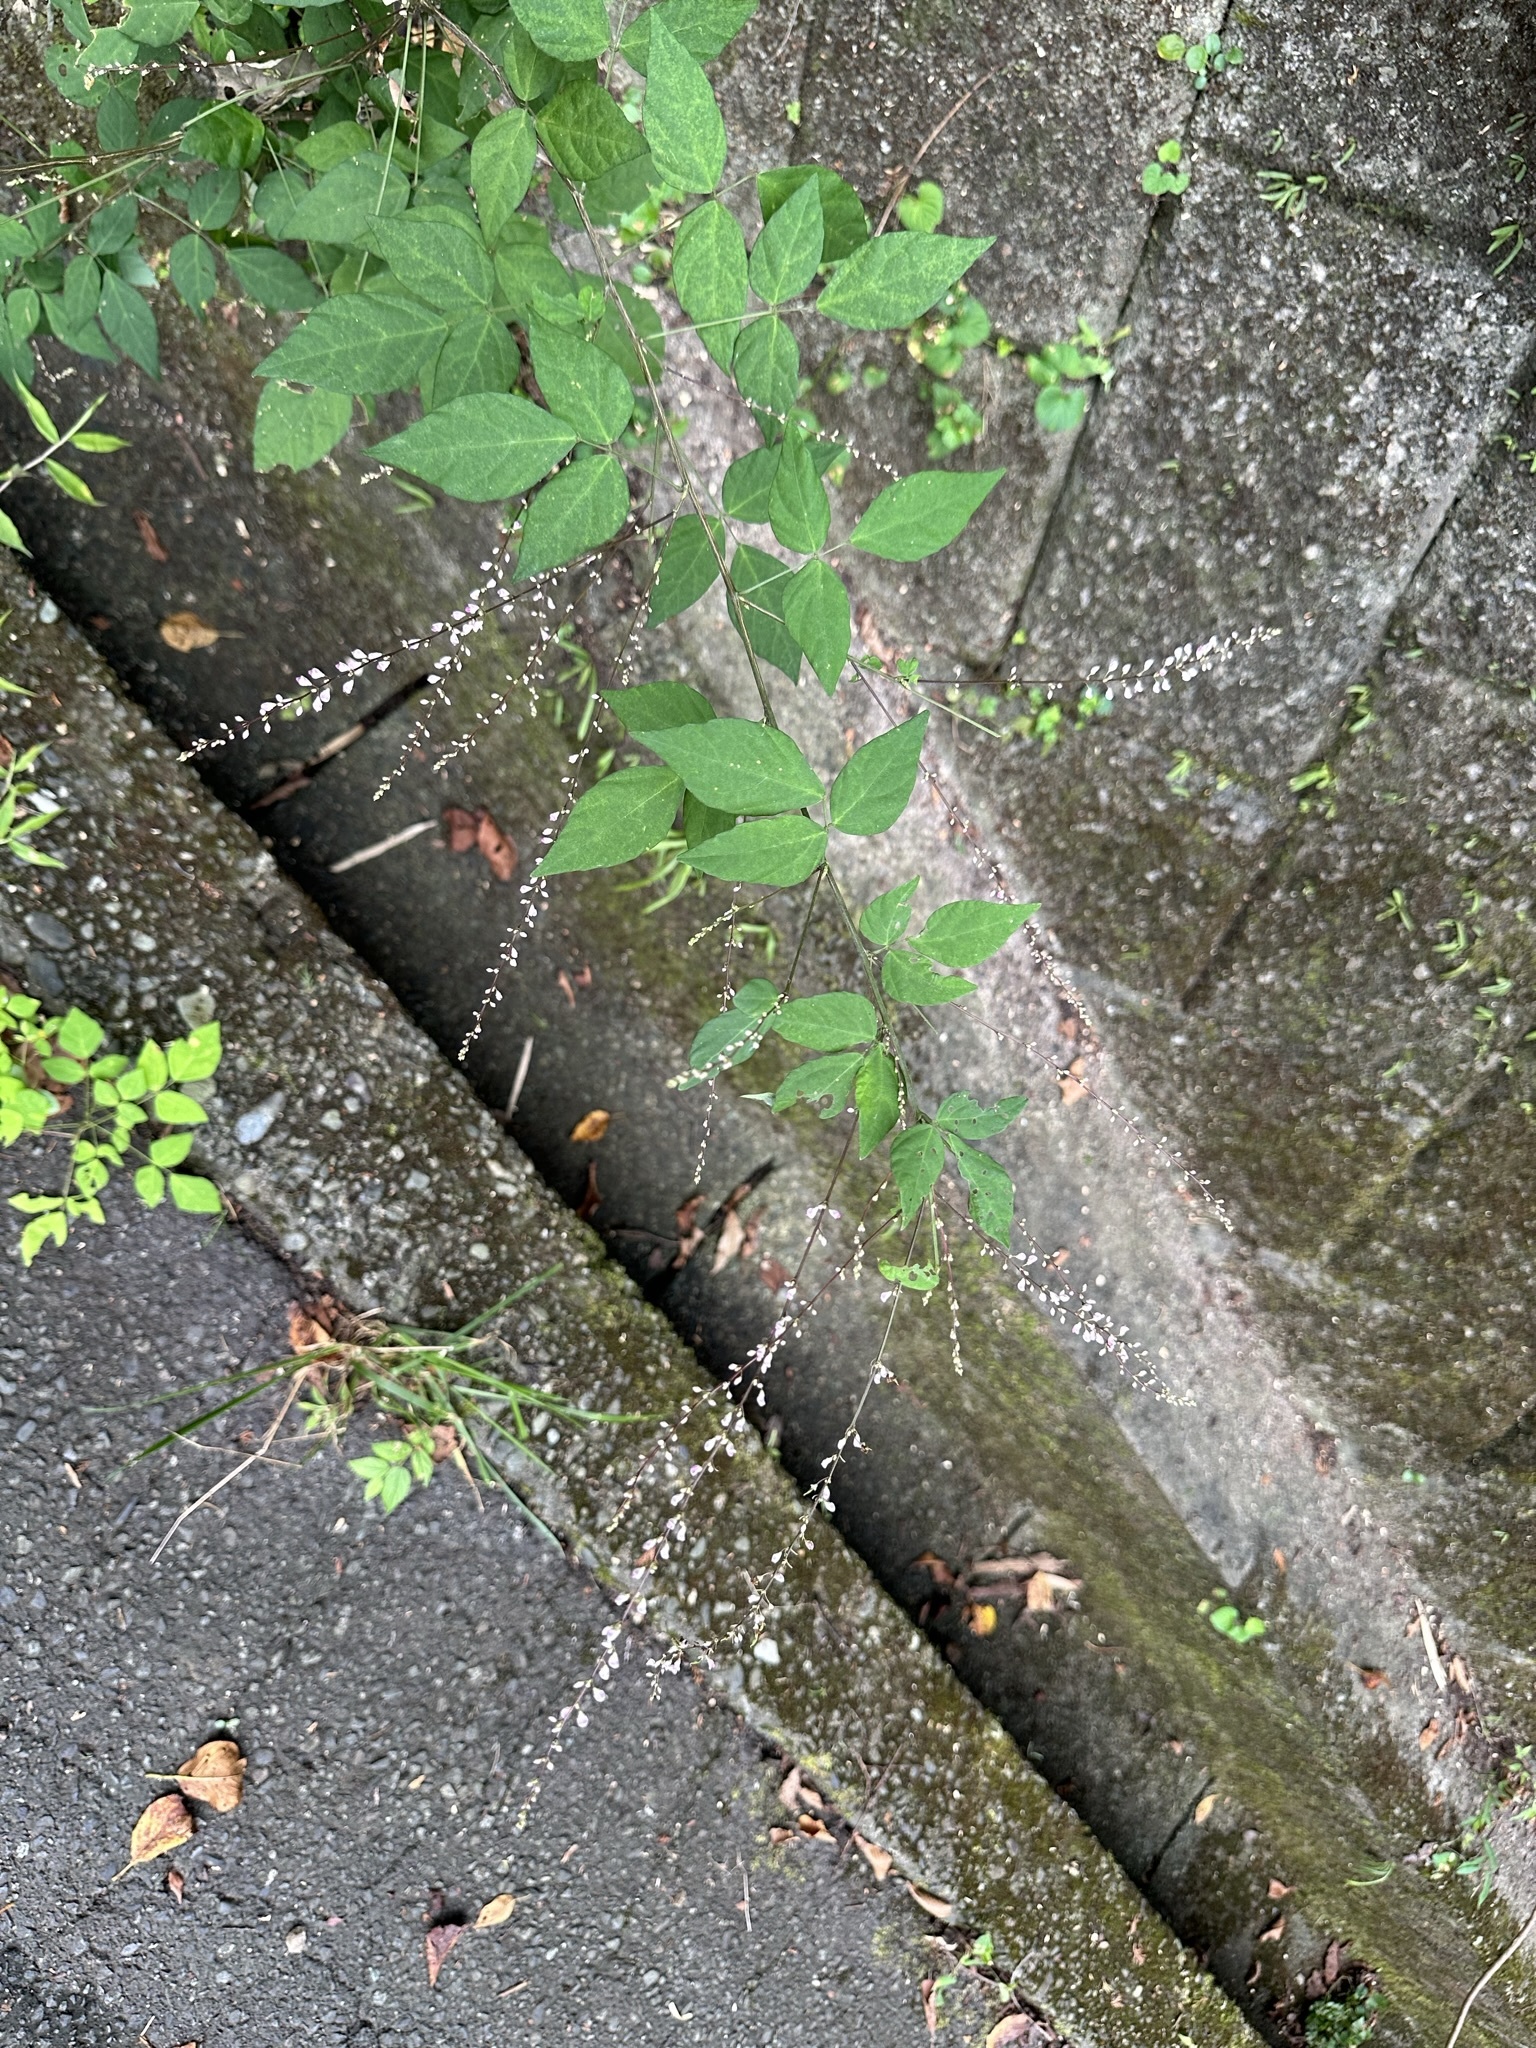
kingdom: Plantae
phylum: Tracheophyta
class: Magnoliopsida
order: Fabales
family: Fabaceae
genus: Hylodesmum
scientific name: Hylodesmum podocarpum
